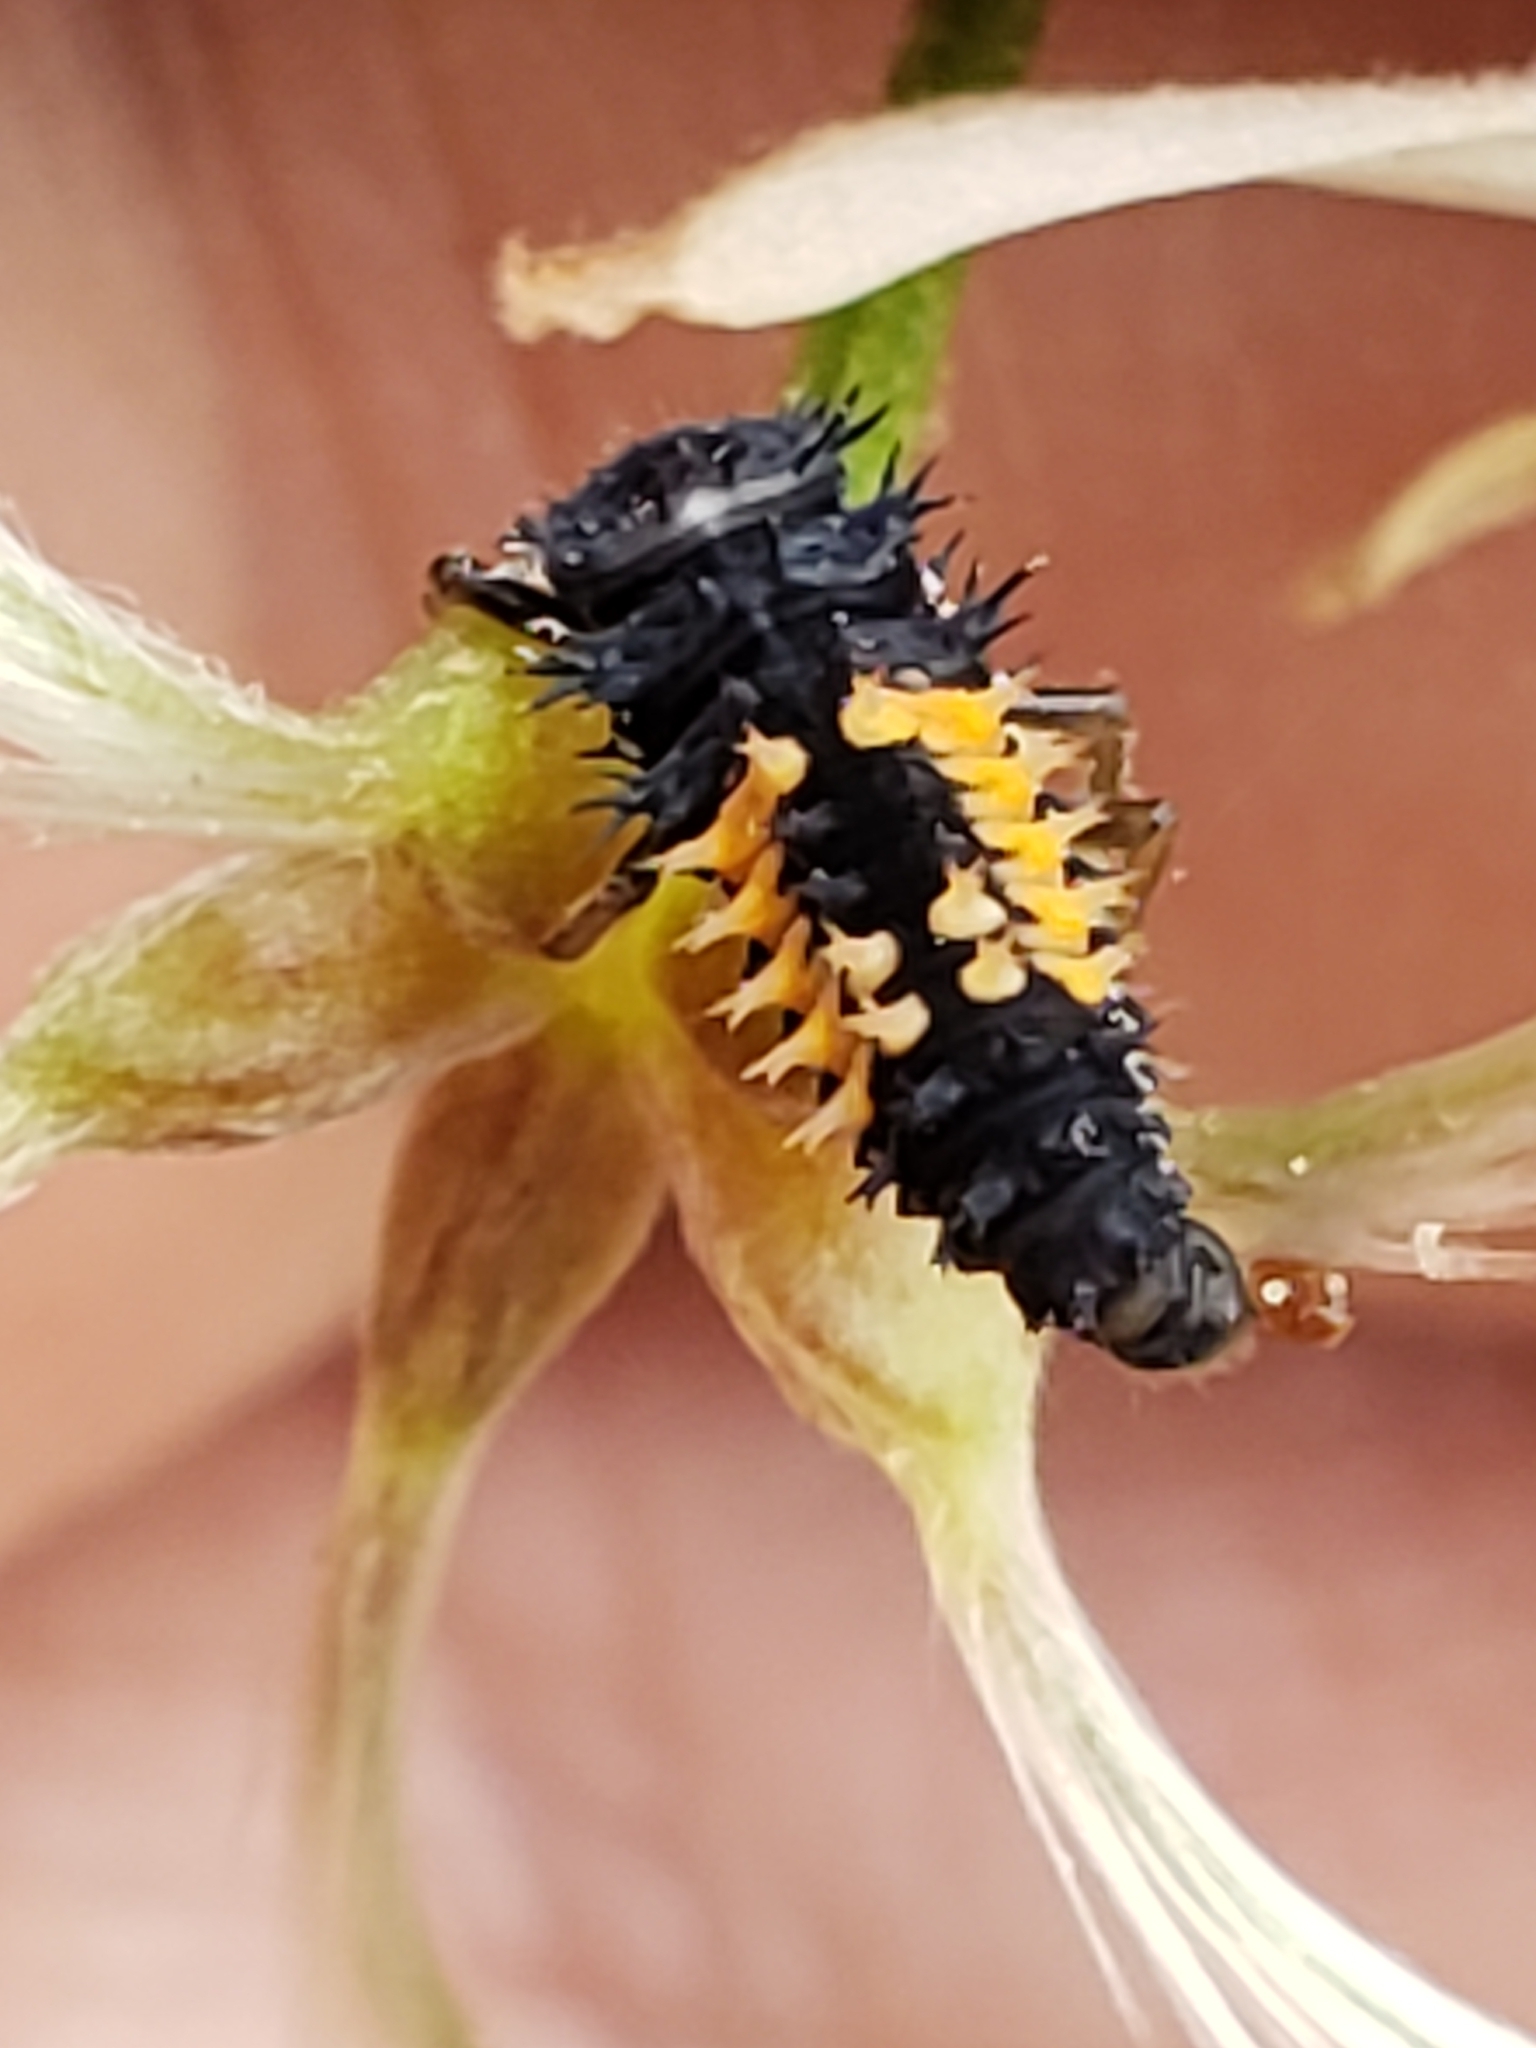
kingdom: Animalia
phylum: Arthropoda
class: Insecta
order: Coleoptera
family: Coccinellidae
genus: Harmonia
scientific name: Harmonia axyridis
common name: Harlequin ladybird
